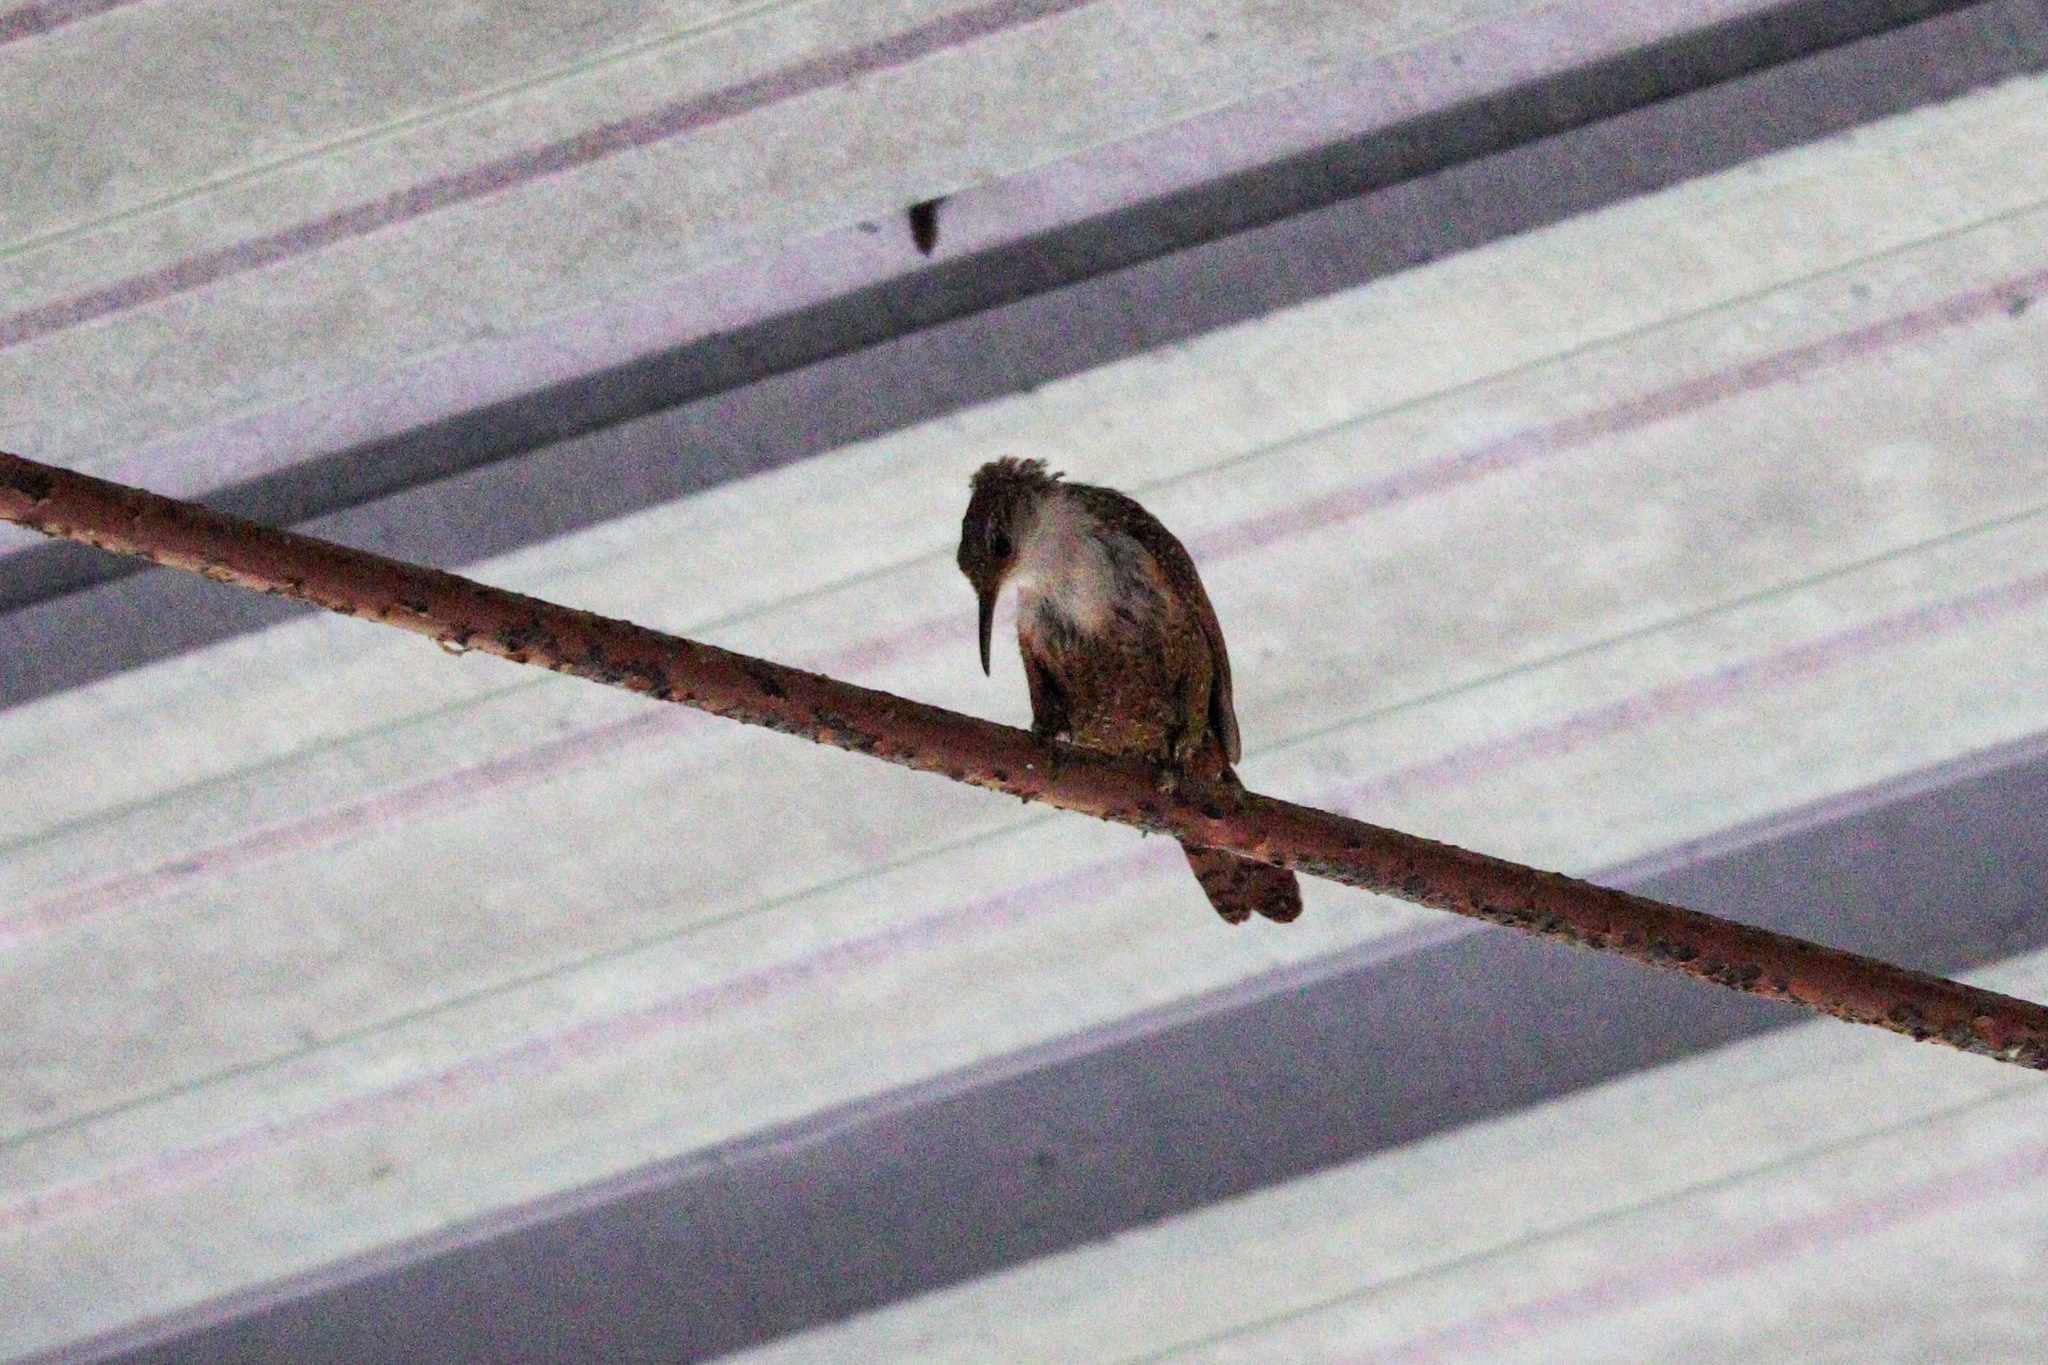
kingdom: Animalia
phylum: Chordata
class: Aves
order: Passeriformes
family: Troglodytidae
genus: Catherpes
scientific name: Catherpes mexicanus
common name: Canyon wren
